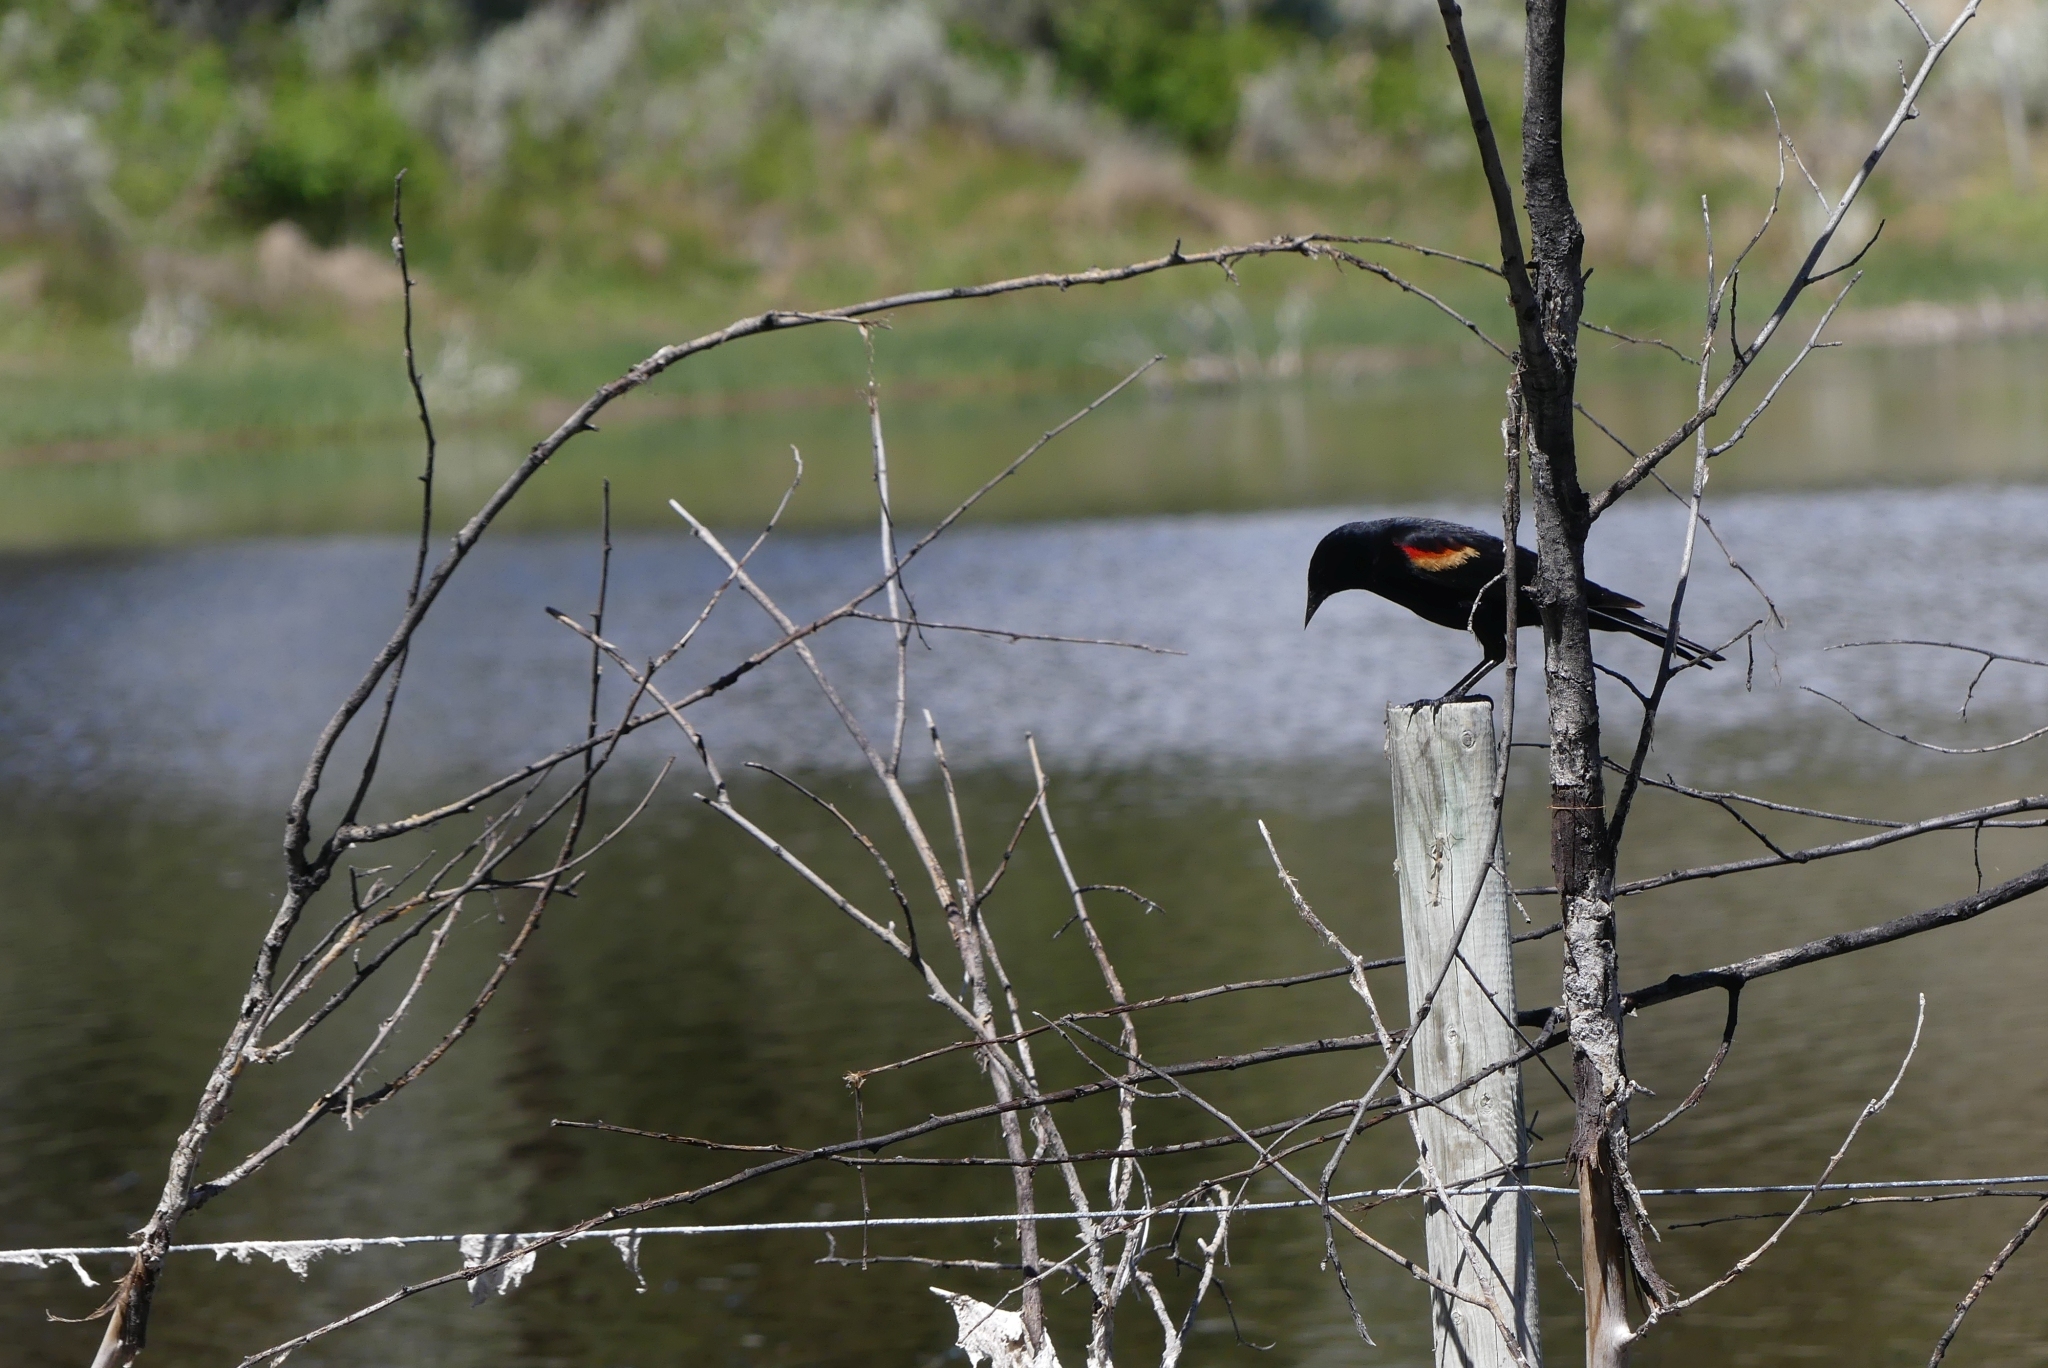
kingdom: Animalia
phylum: Chordata
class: Aves
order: Passeriformes
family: Icteridae
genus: Agelaius
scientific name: Agelaius phoeniceus
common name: Red-winged blackbird
